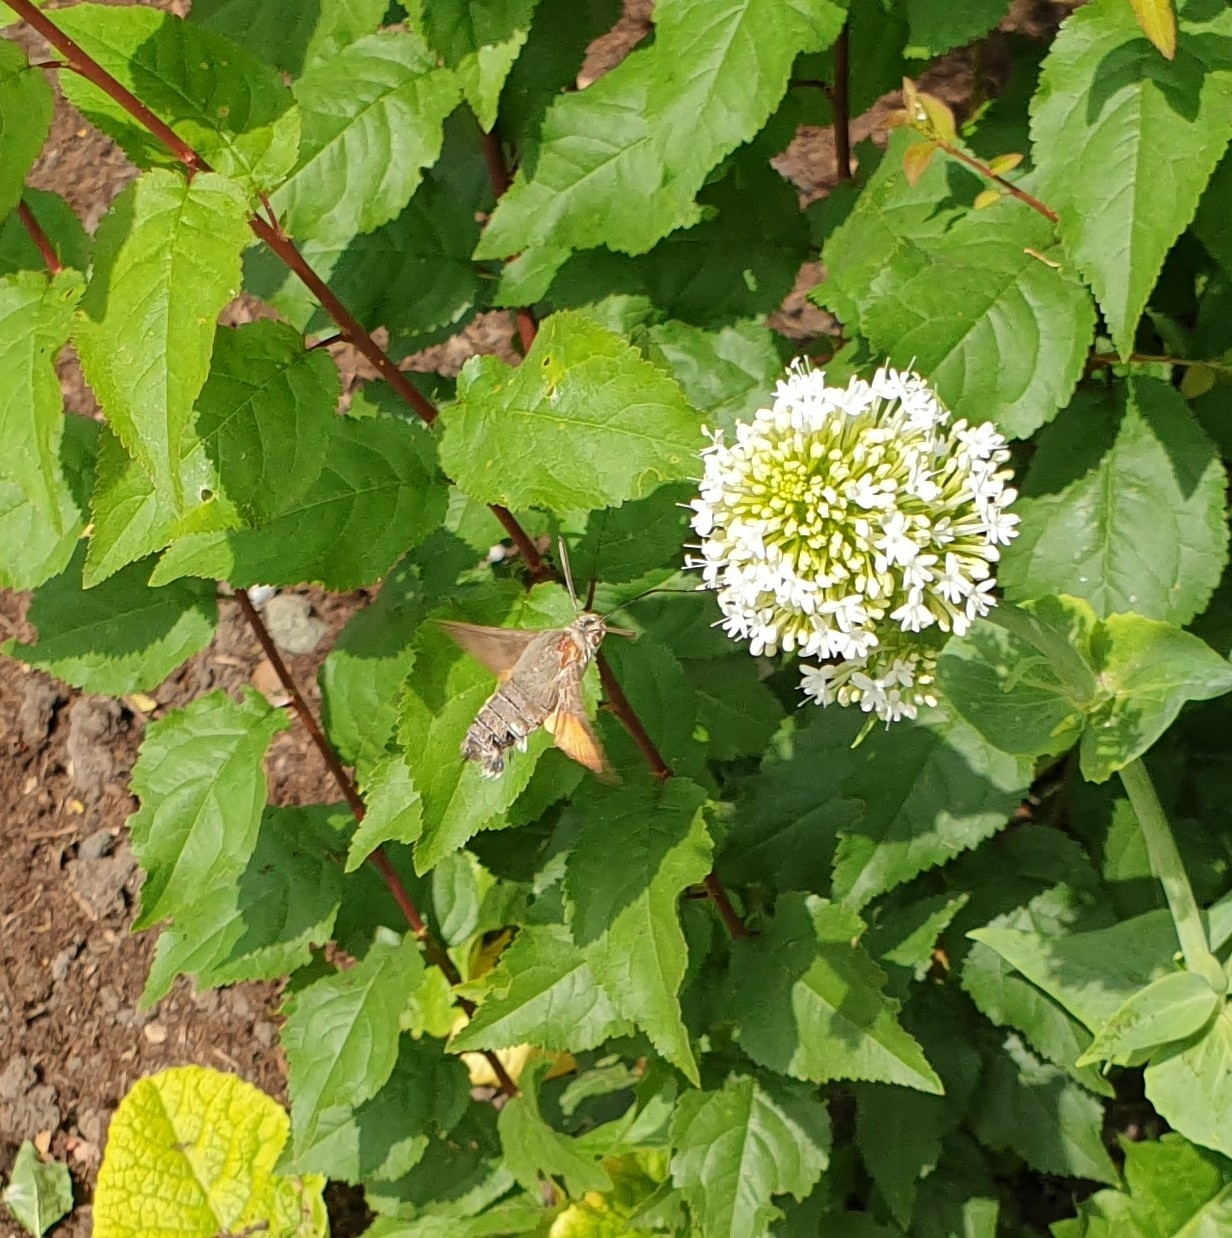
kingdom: Animalia
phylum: Arthropoda
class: Insecta
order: Lepidoptera
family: Sphingidae
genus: Macroglossum
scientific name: Macroglossum stellatarum
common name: Humming-bird hawk-moth
